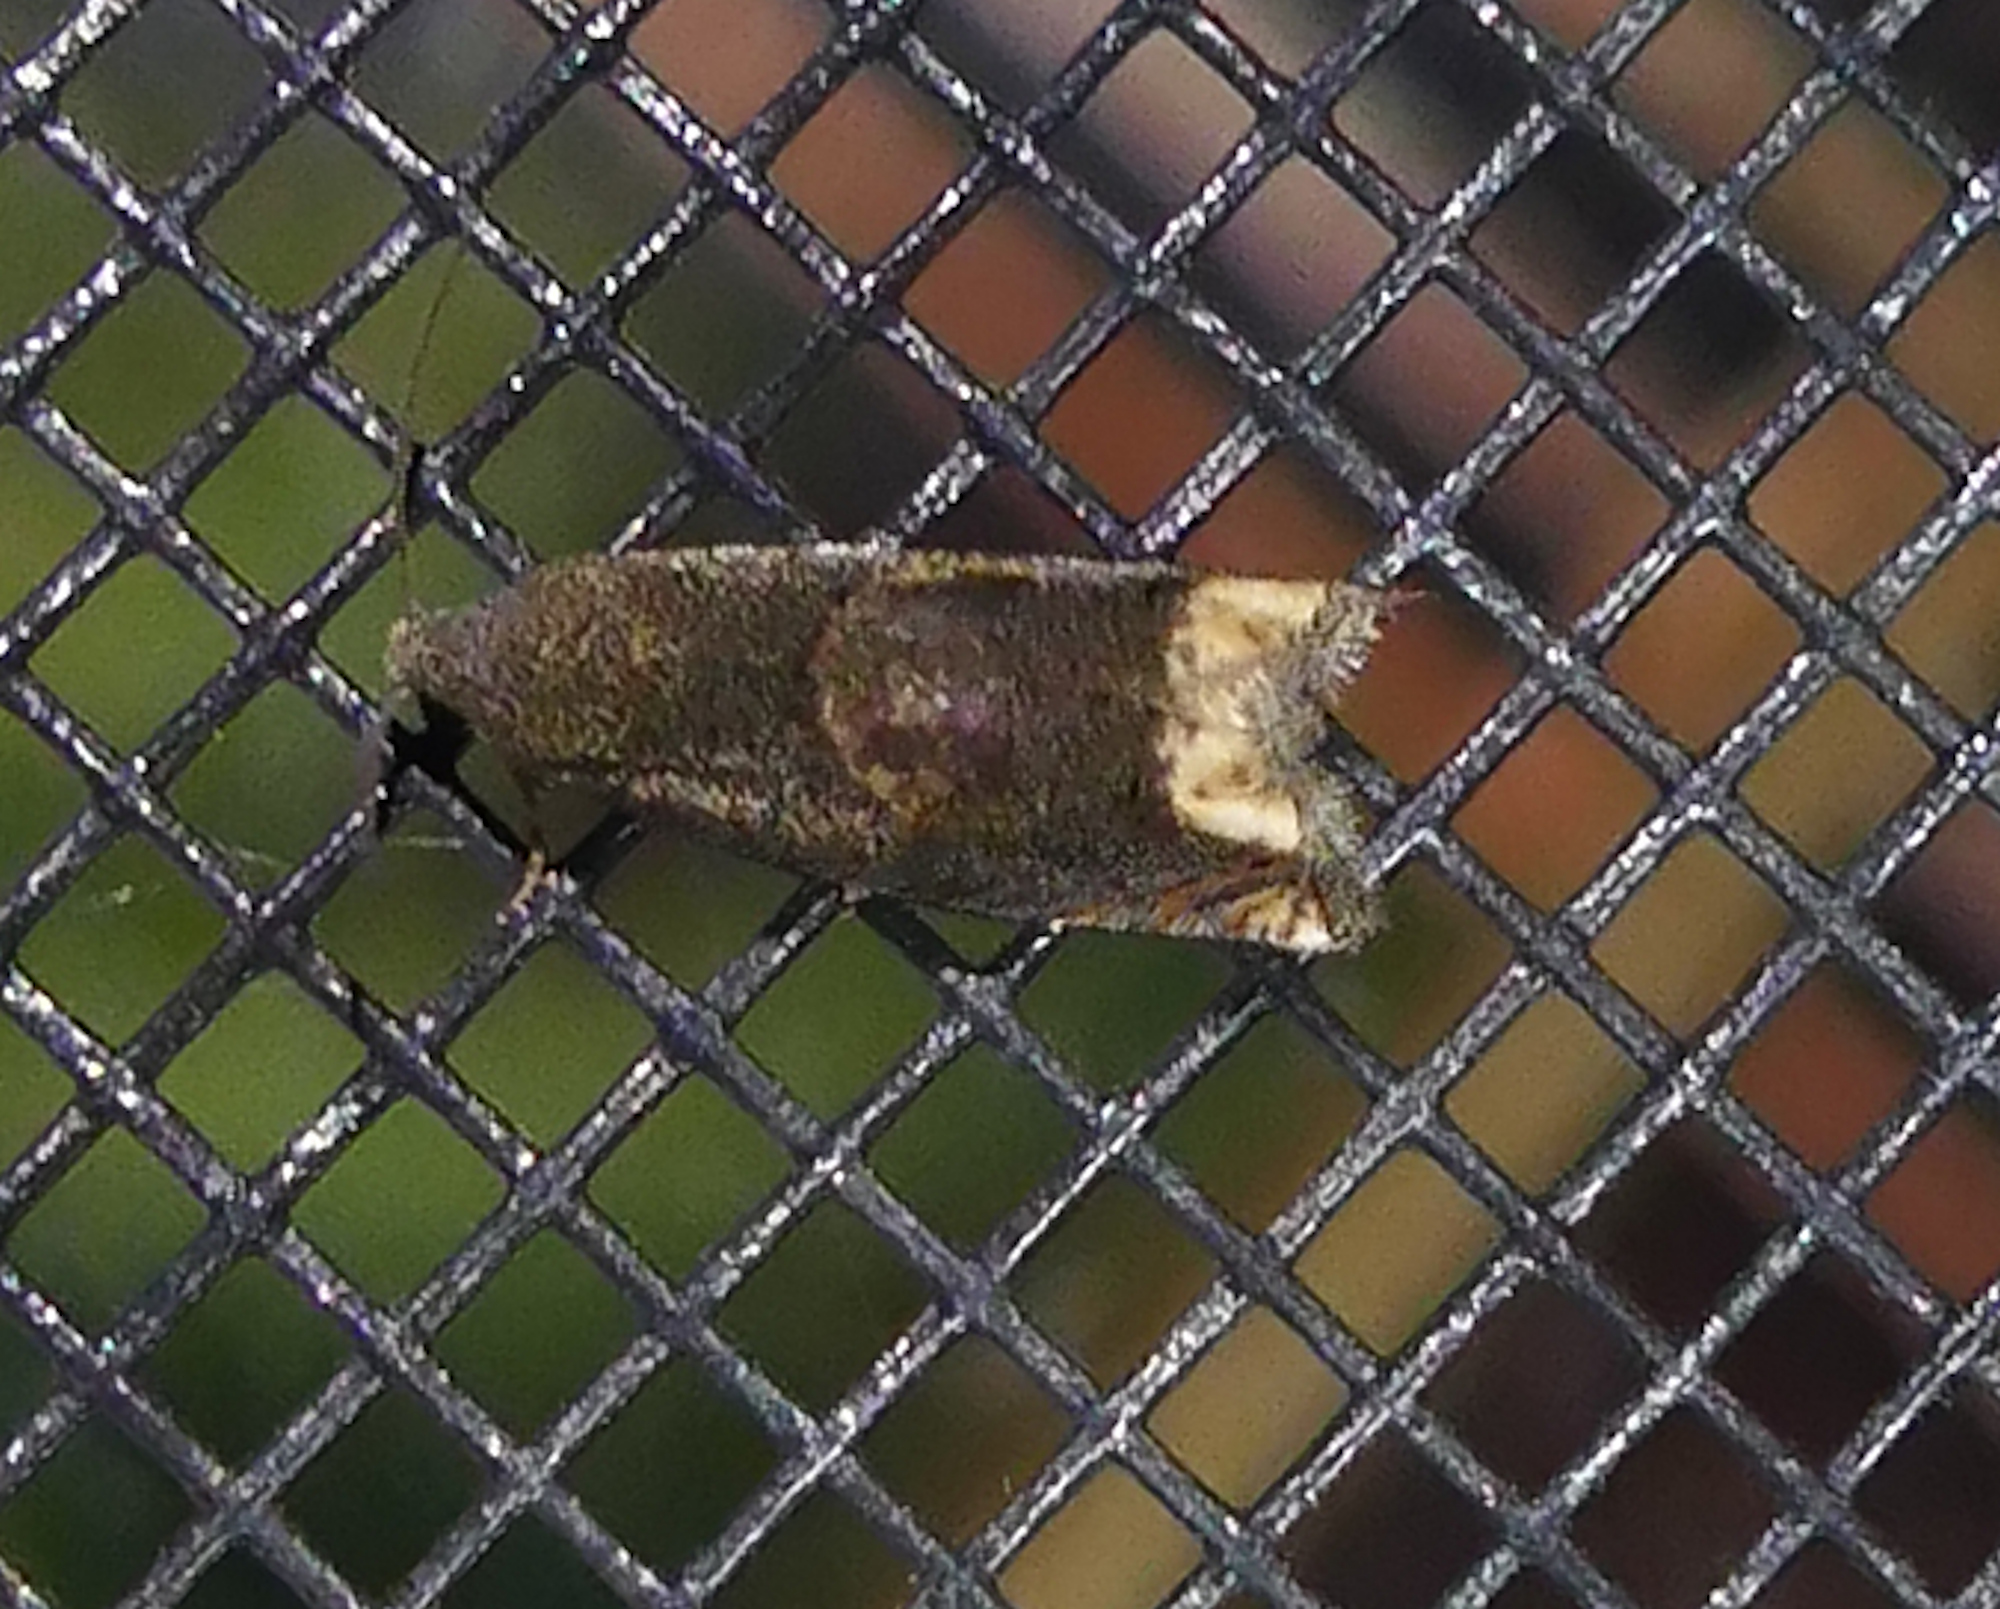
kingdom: Animalia
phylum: Arthropoda
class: Insecta
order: Lepidoptera
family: Tortricidae
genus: Epiblema
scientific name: Epiblema strenuana
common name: Ragweed borer moth
